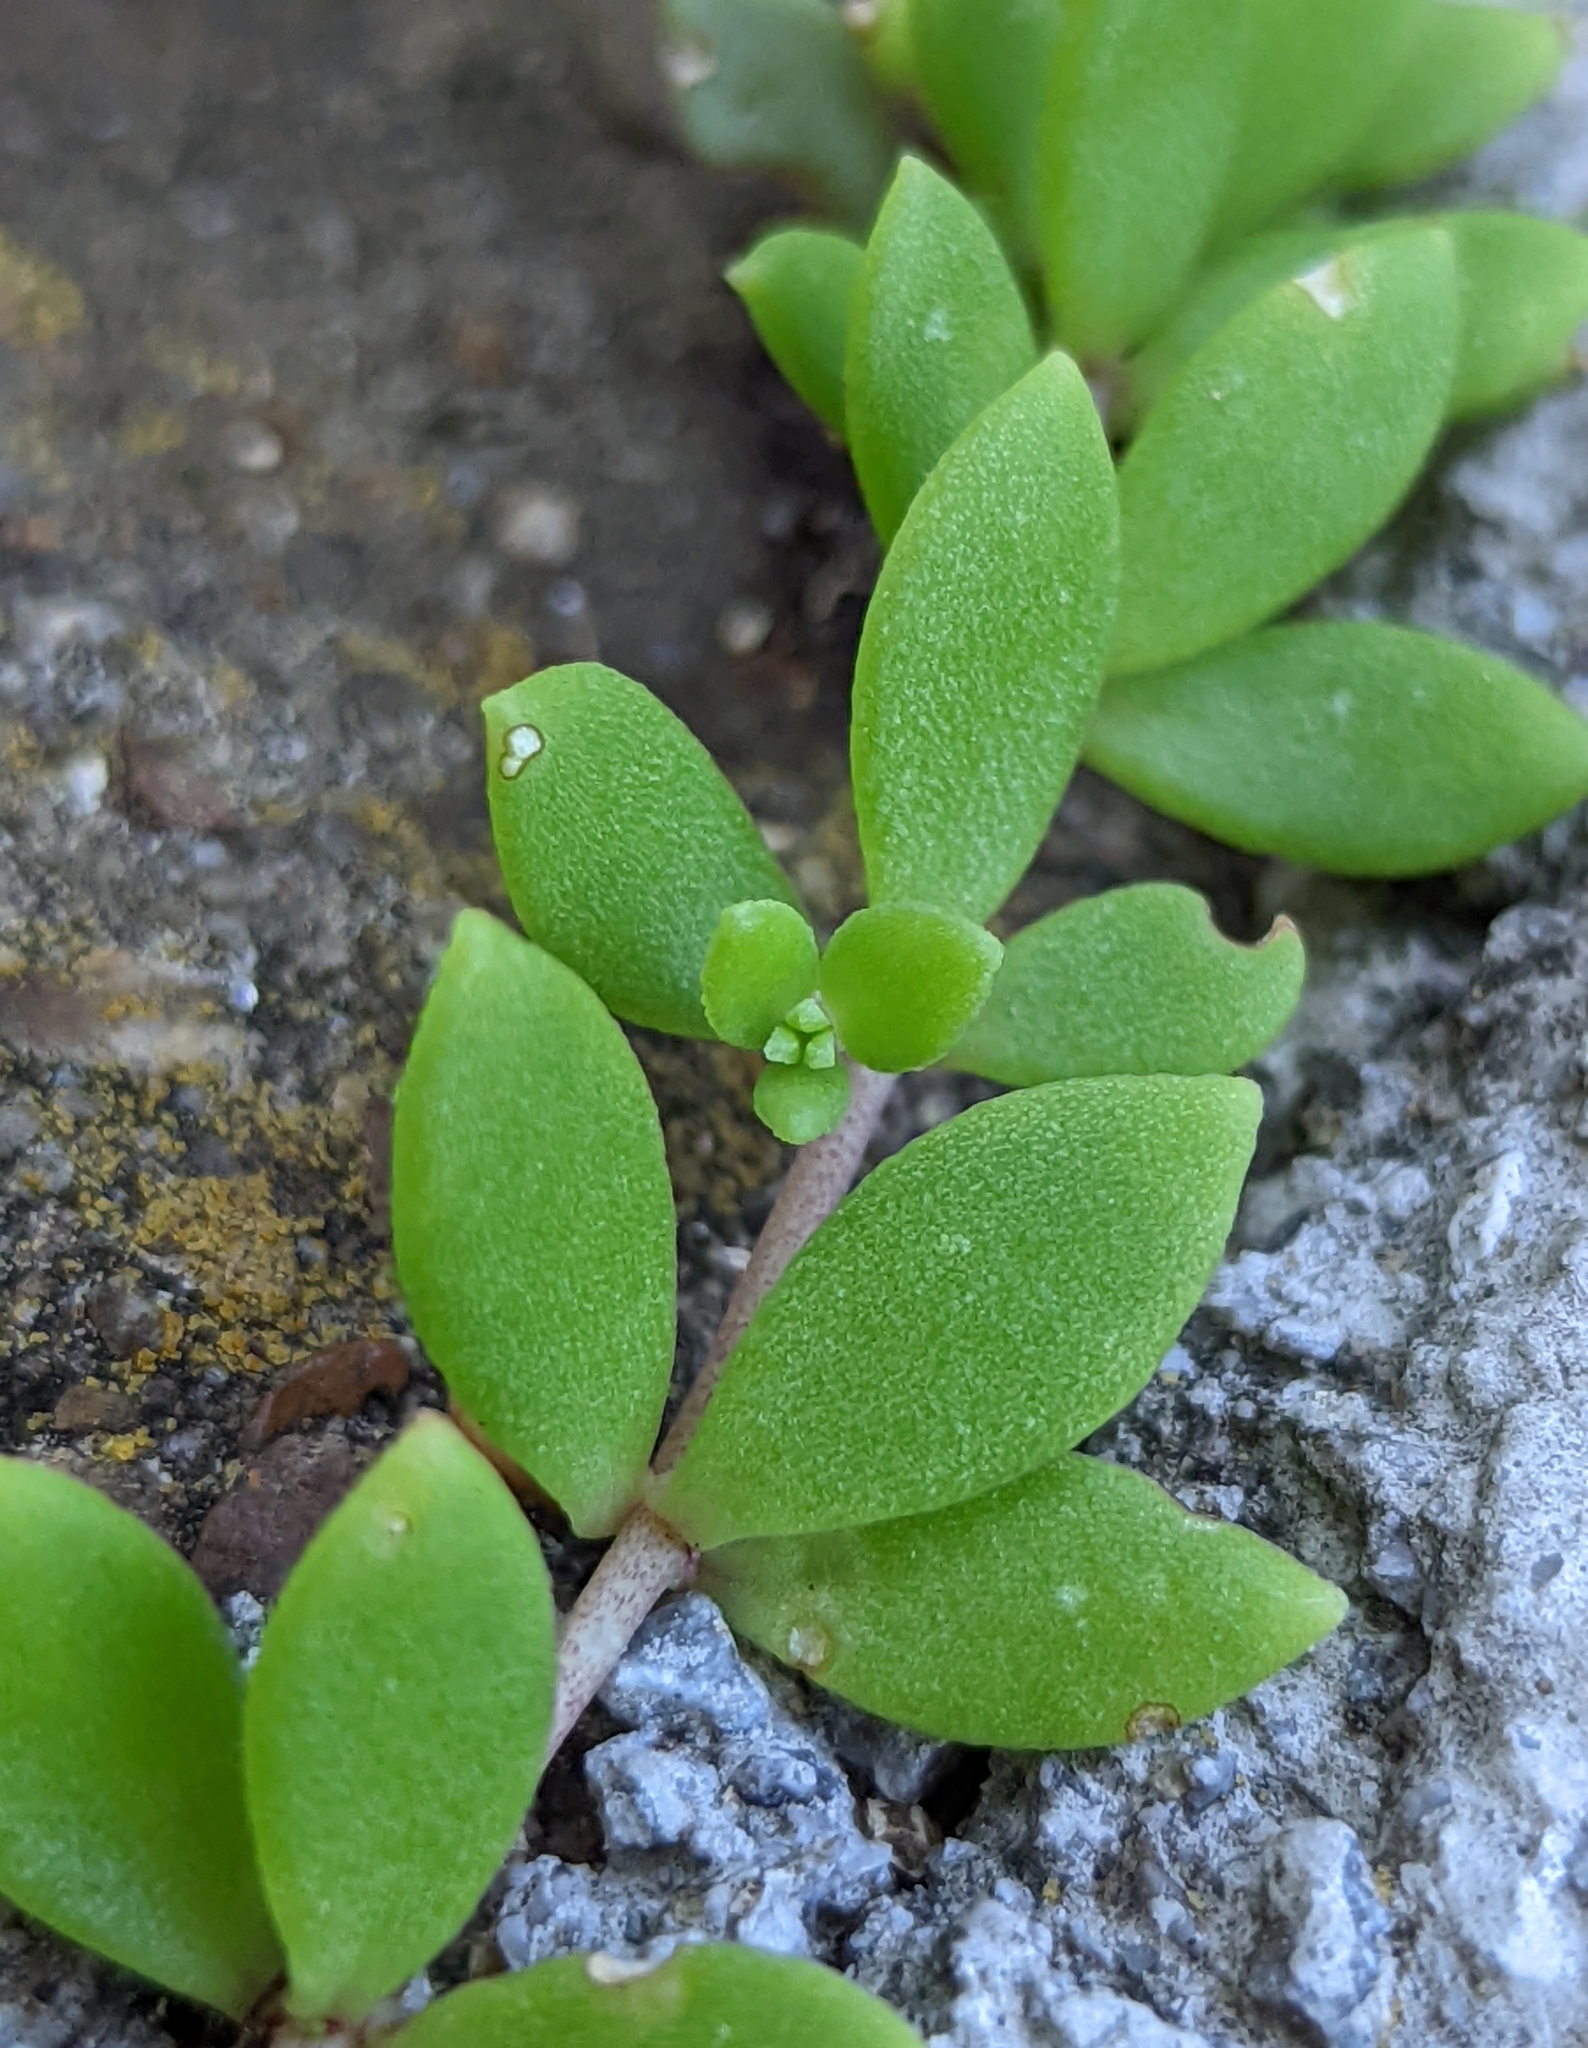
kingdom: Plantae
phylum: Tracheophyta
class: Magnoliopsida
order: Saxifragales
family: Crassulaceae
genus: Sedum
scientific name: Sedum sarmentosum
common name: Stringy stonecrop
